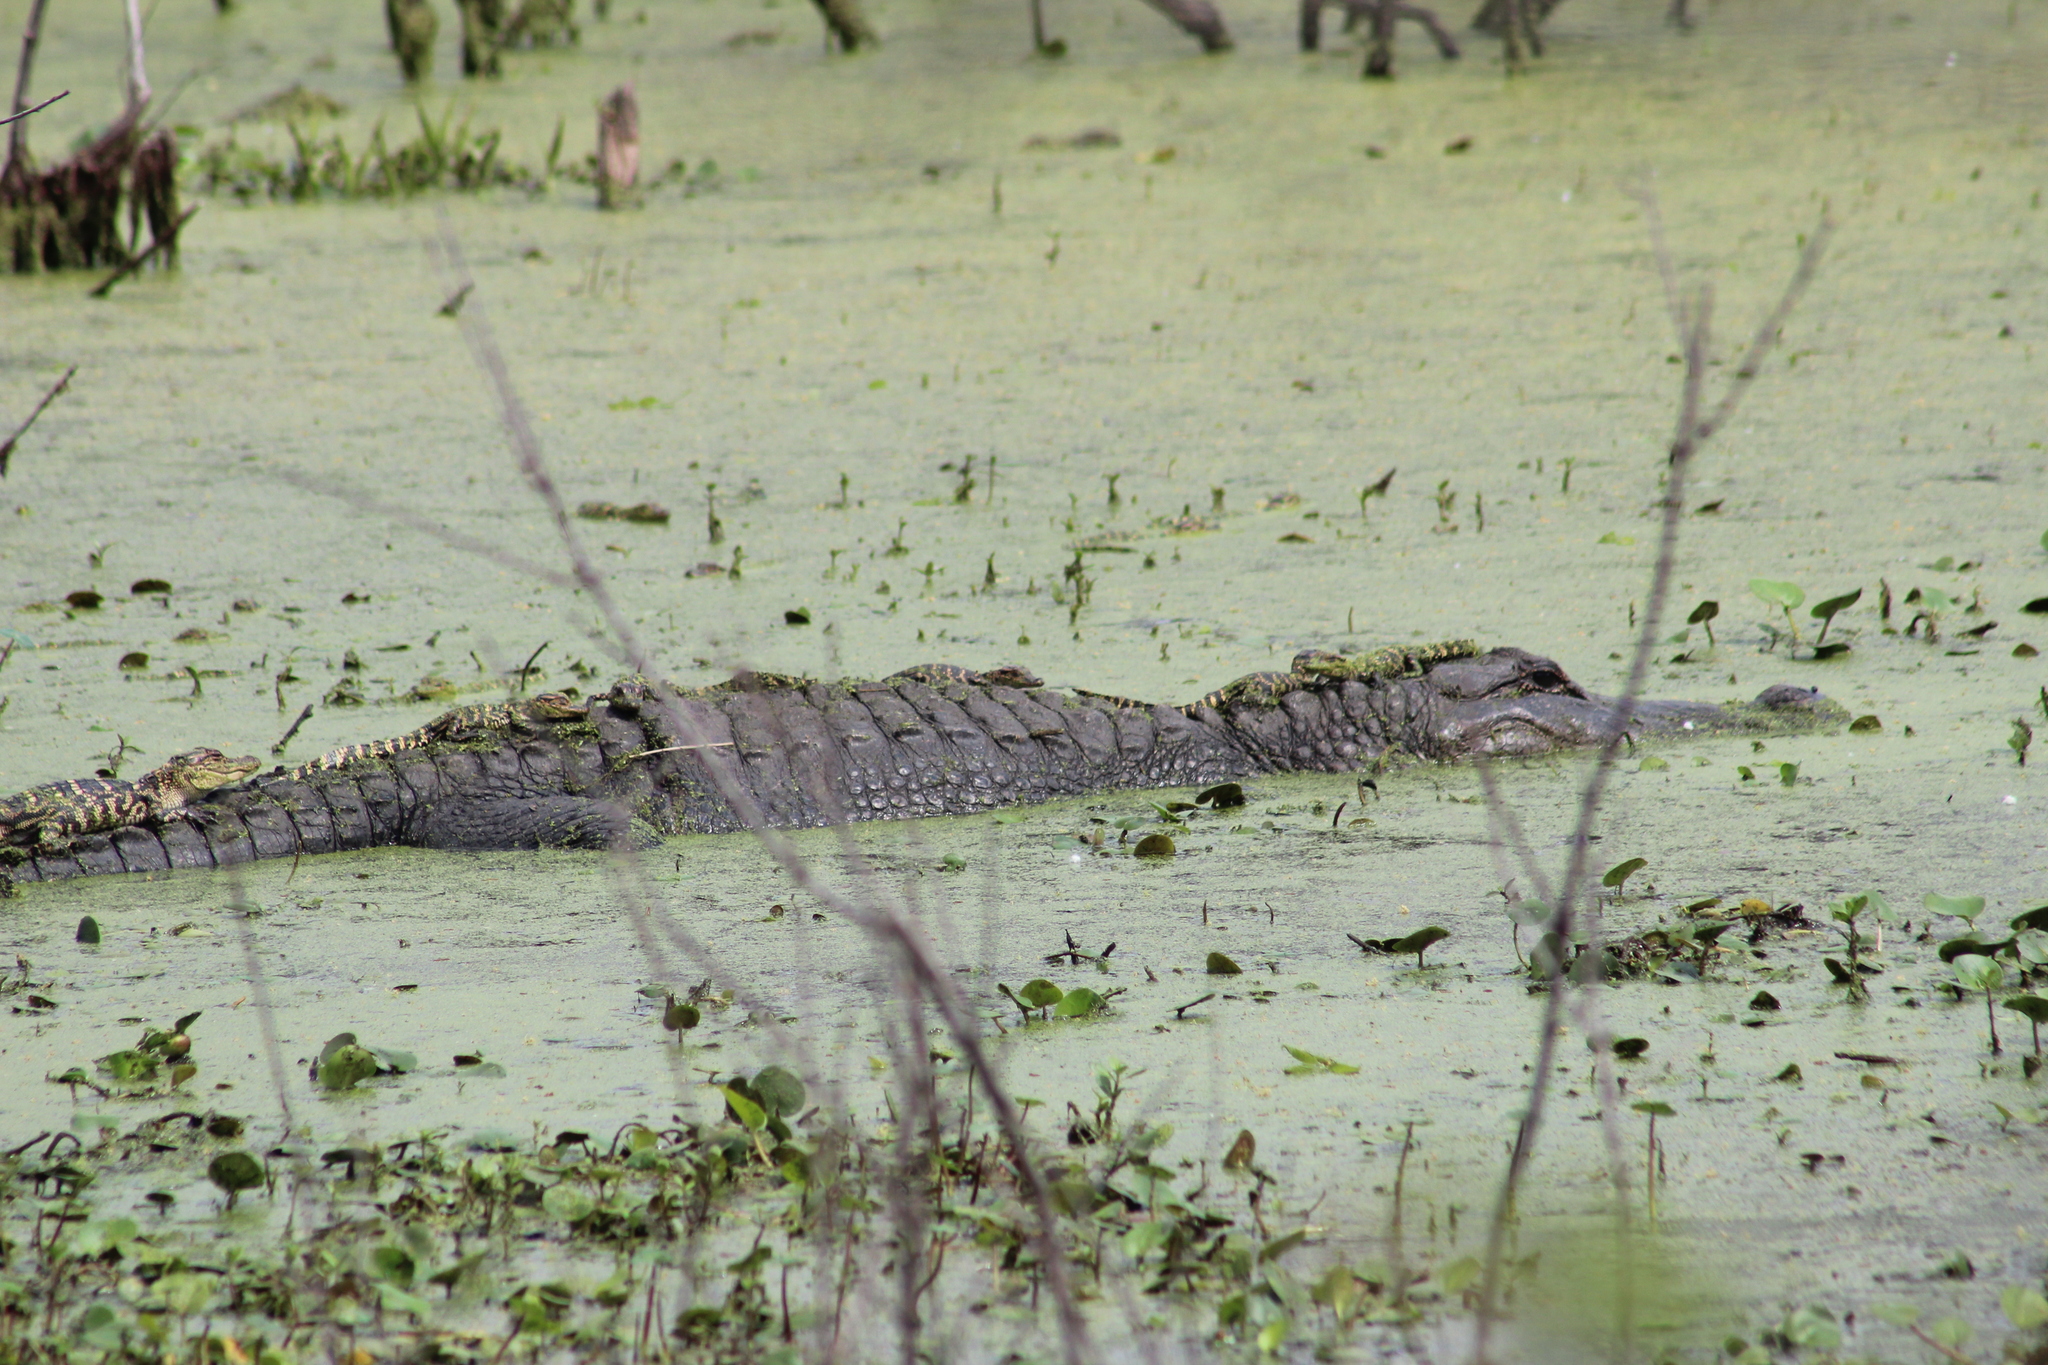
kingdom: Animalia
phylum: Chordata
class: Crocodylia
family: Alligatoridae
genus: Alligator
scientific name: Alligator mississippiensis
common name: American alligator
